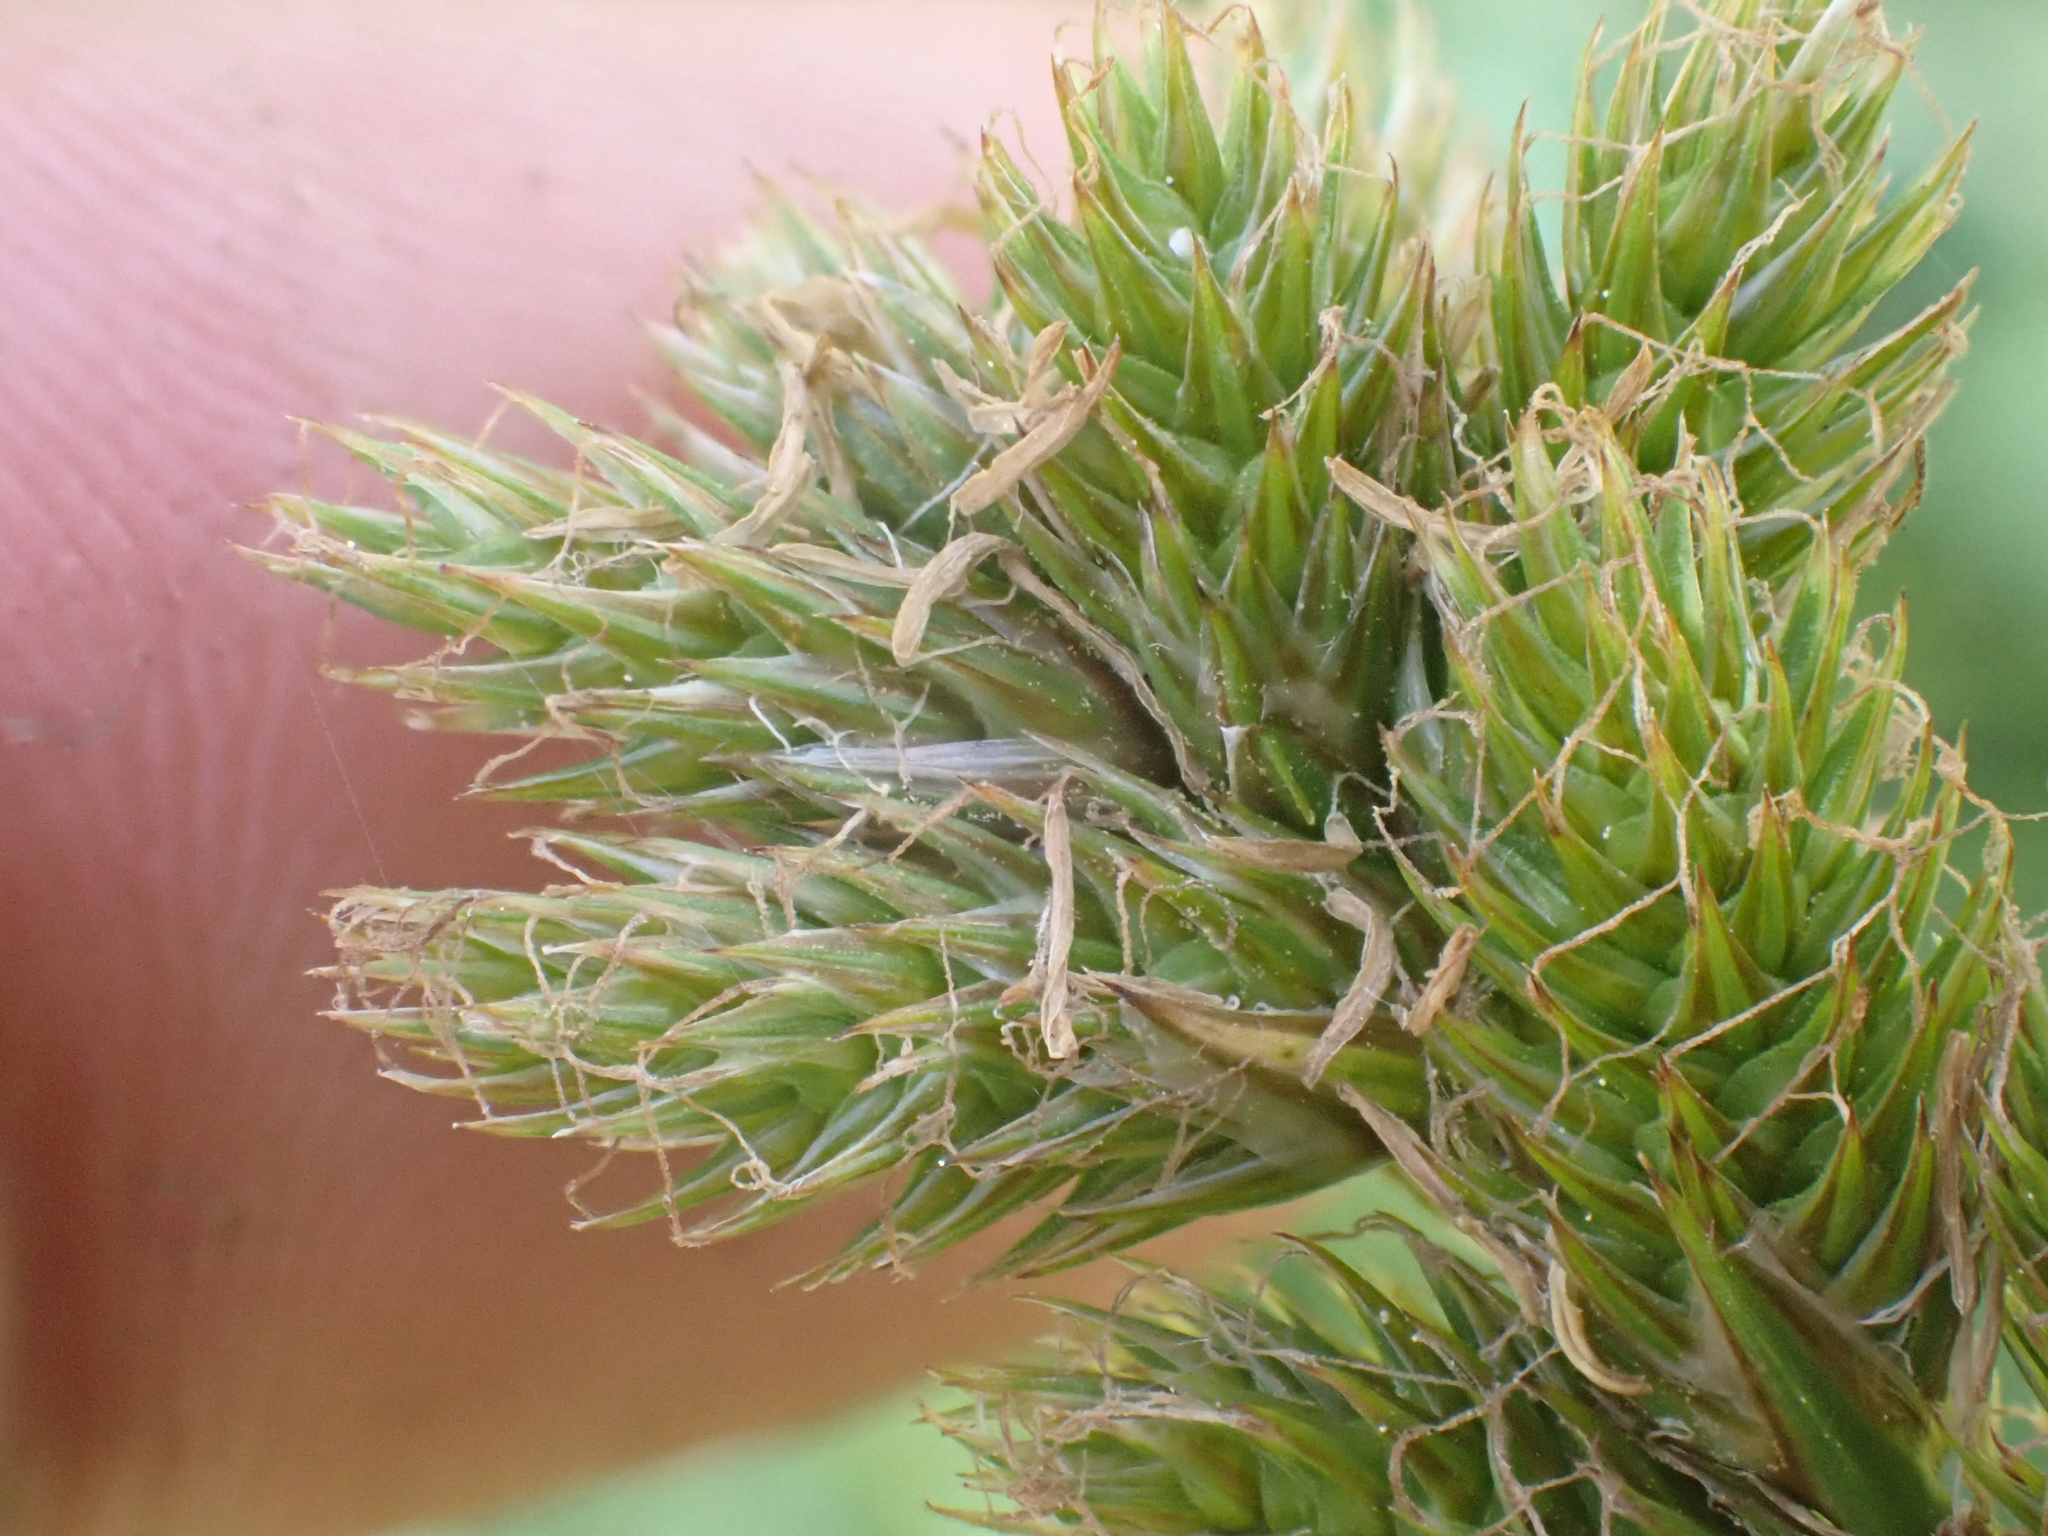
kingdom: Plantae
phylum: Tracheophyta
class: Liliopsida
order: Poales
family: Cyperaceae
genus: Carex
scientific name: Carex fracta
